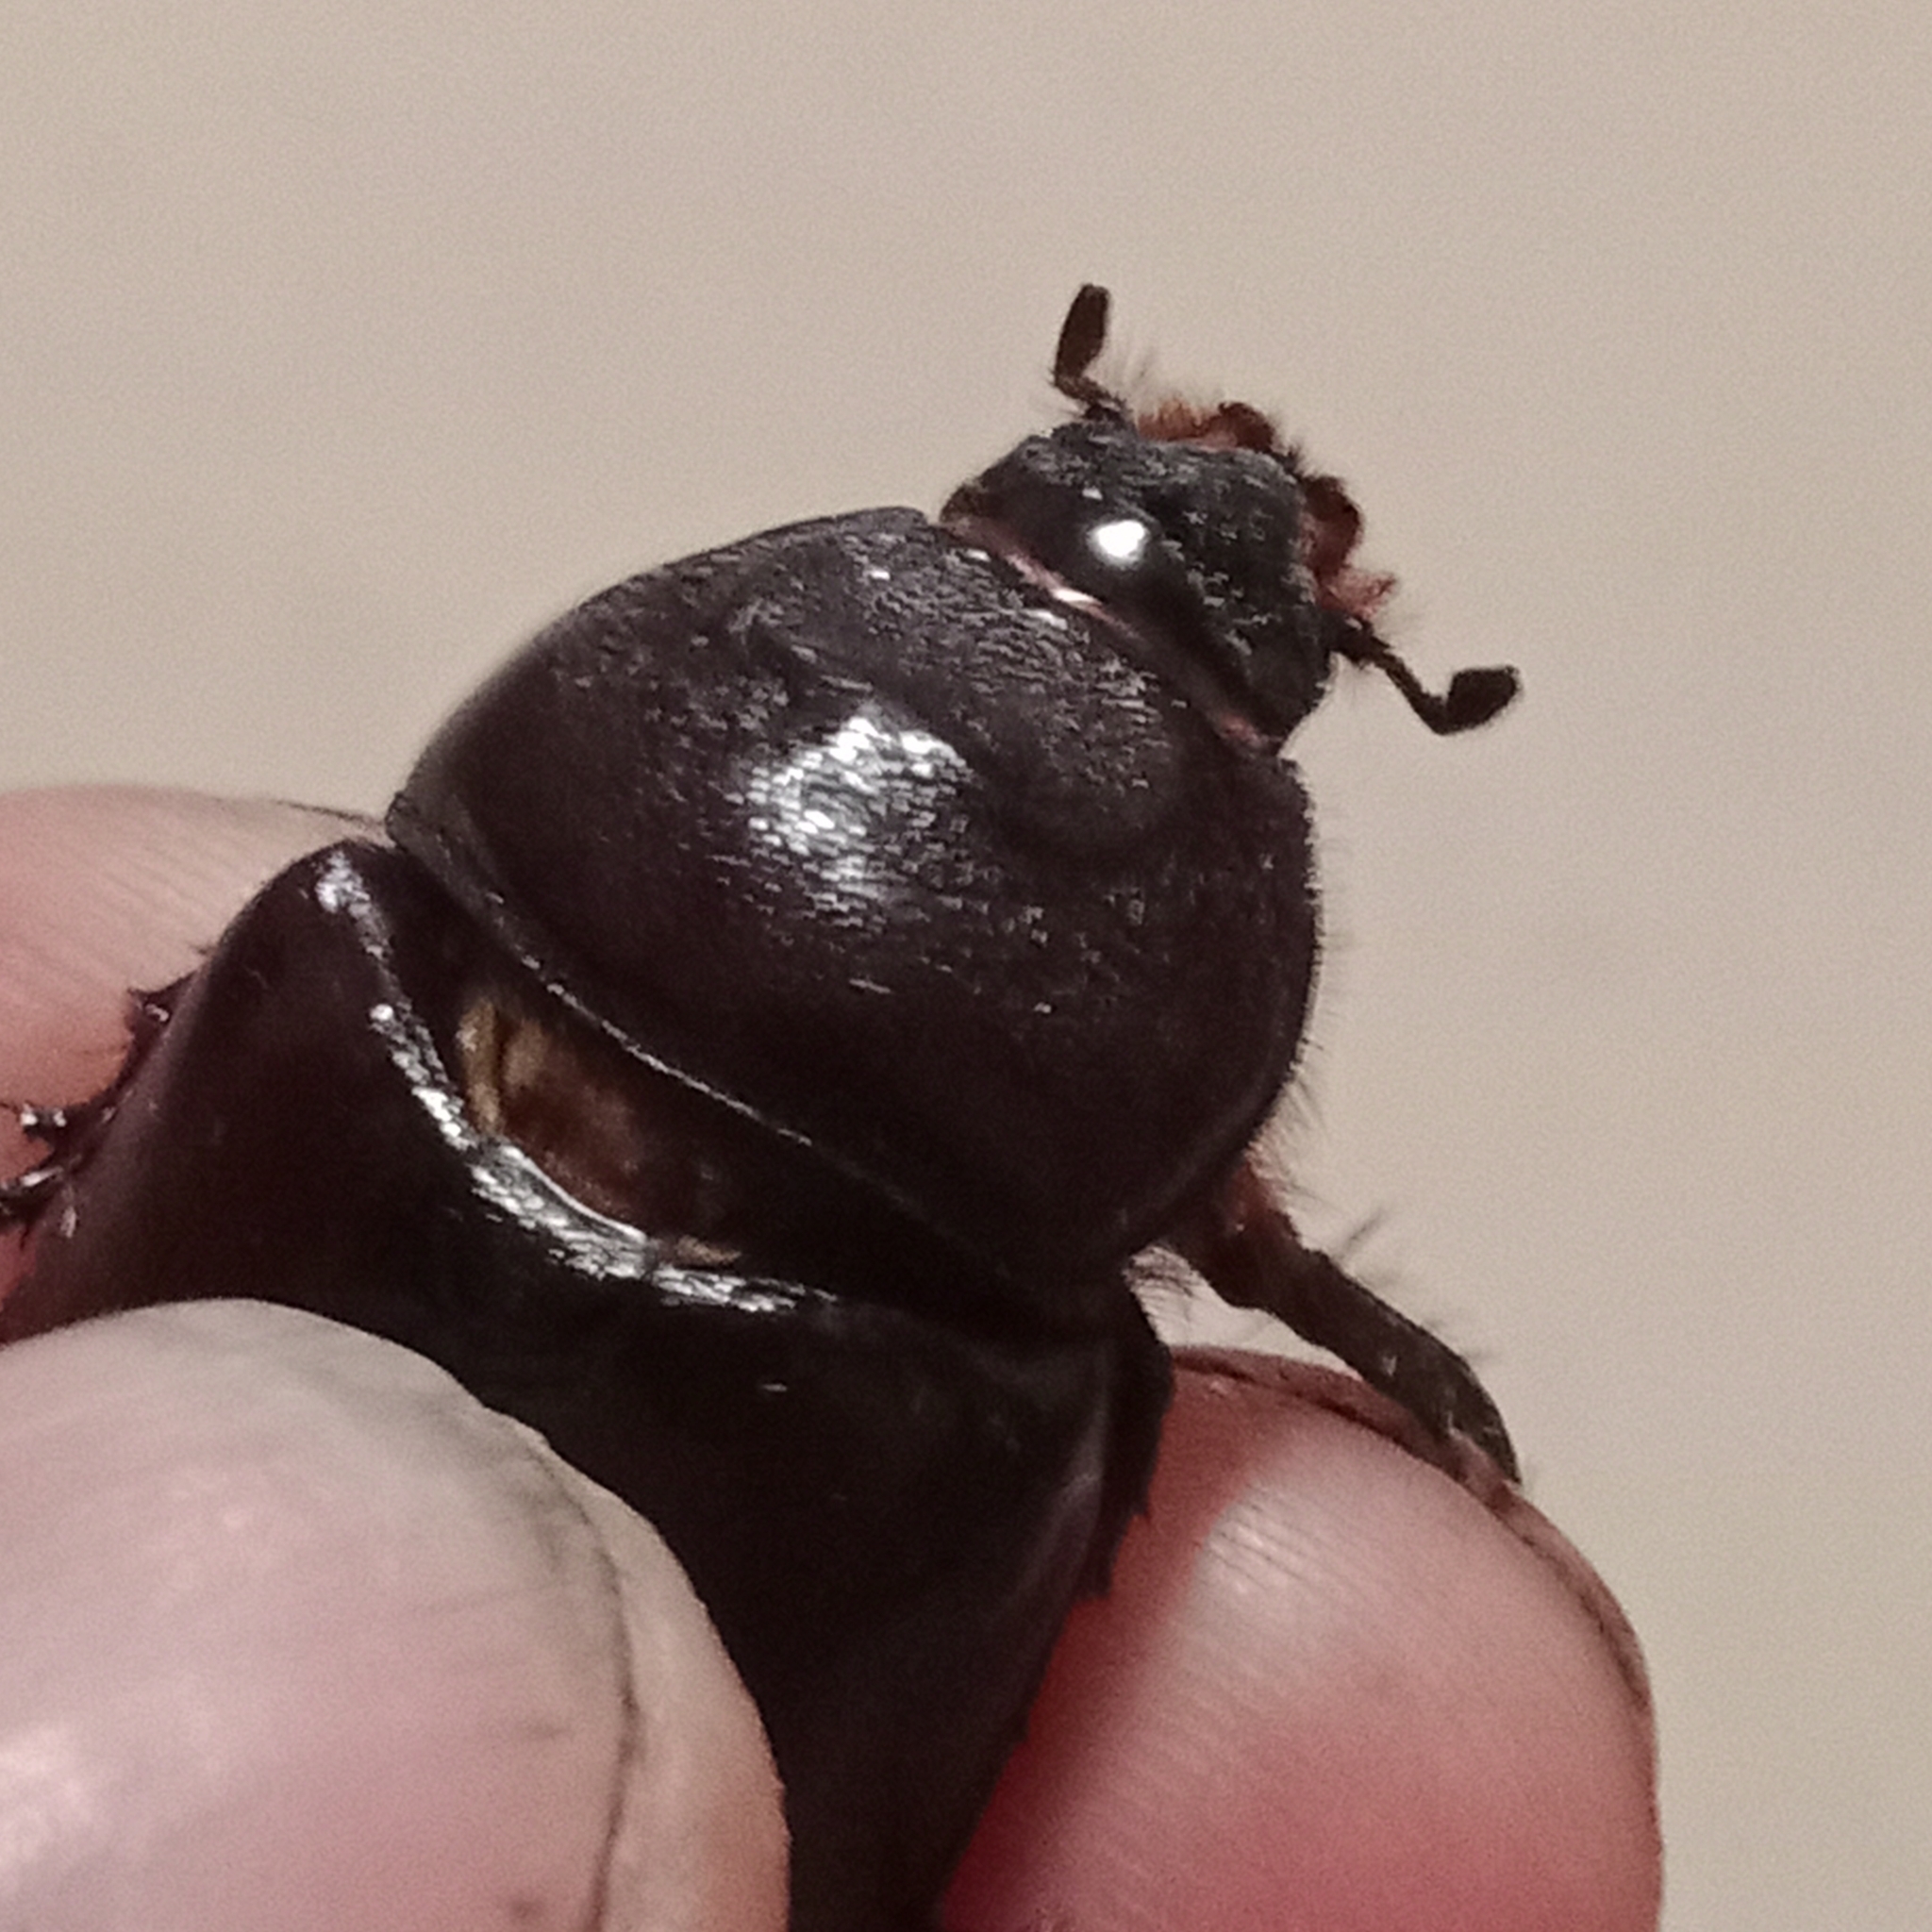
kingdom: Animalia
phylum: Arthropoda
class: Insecta
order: Coleoptera
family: Scarabaeidae
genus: Oryctes
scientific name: Oryctes nasicornis
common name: European rhinoceros beetle
